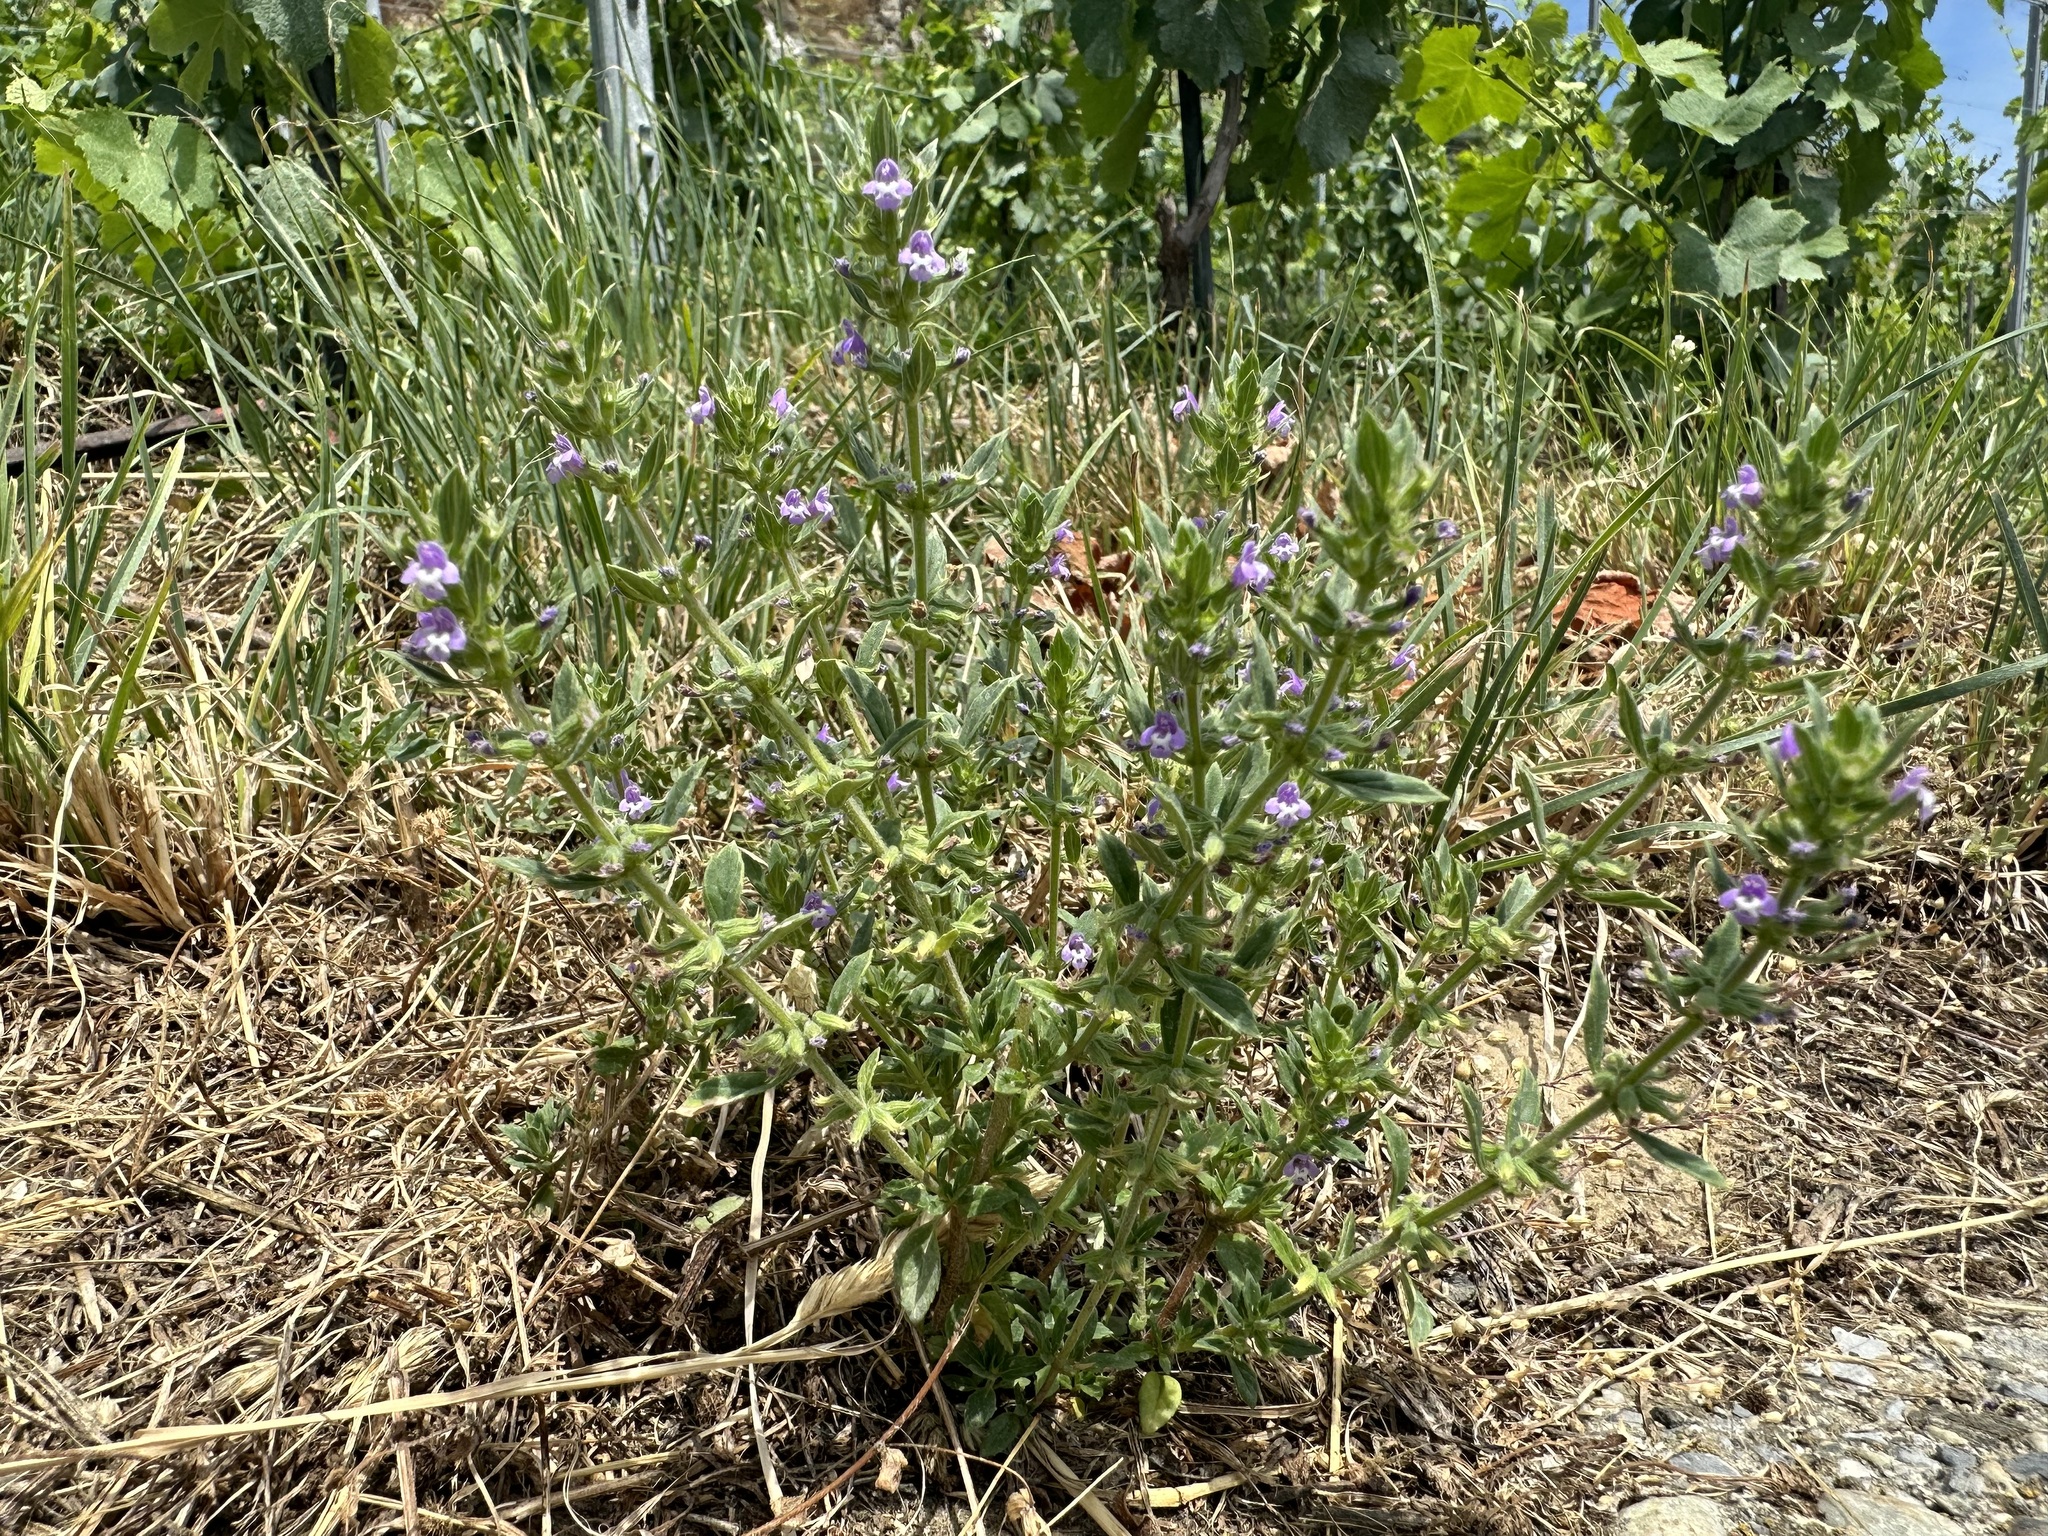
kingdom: Plantae
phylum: Tracheophyta
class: Magnoliopsida
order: Lamiales
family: Lamiaceae
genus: Clinopodium
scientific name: Clinopodium acinos
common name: Basil thyme
